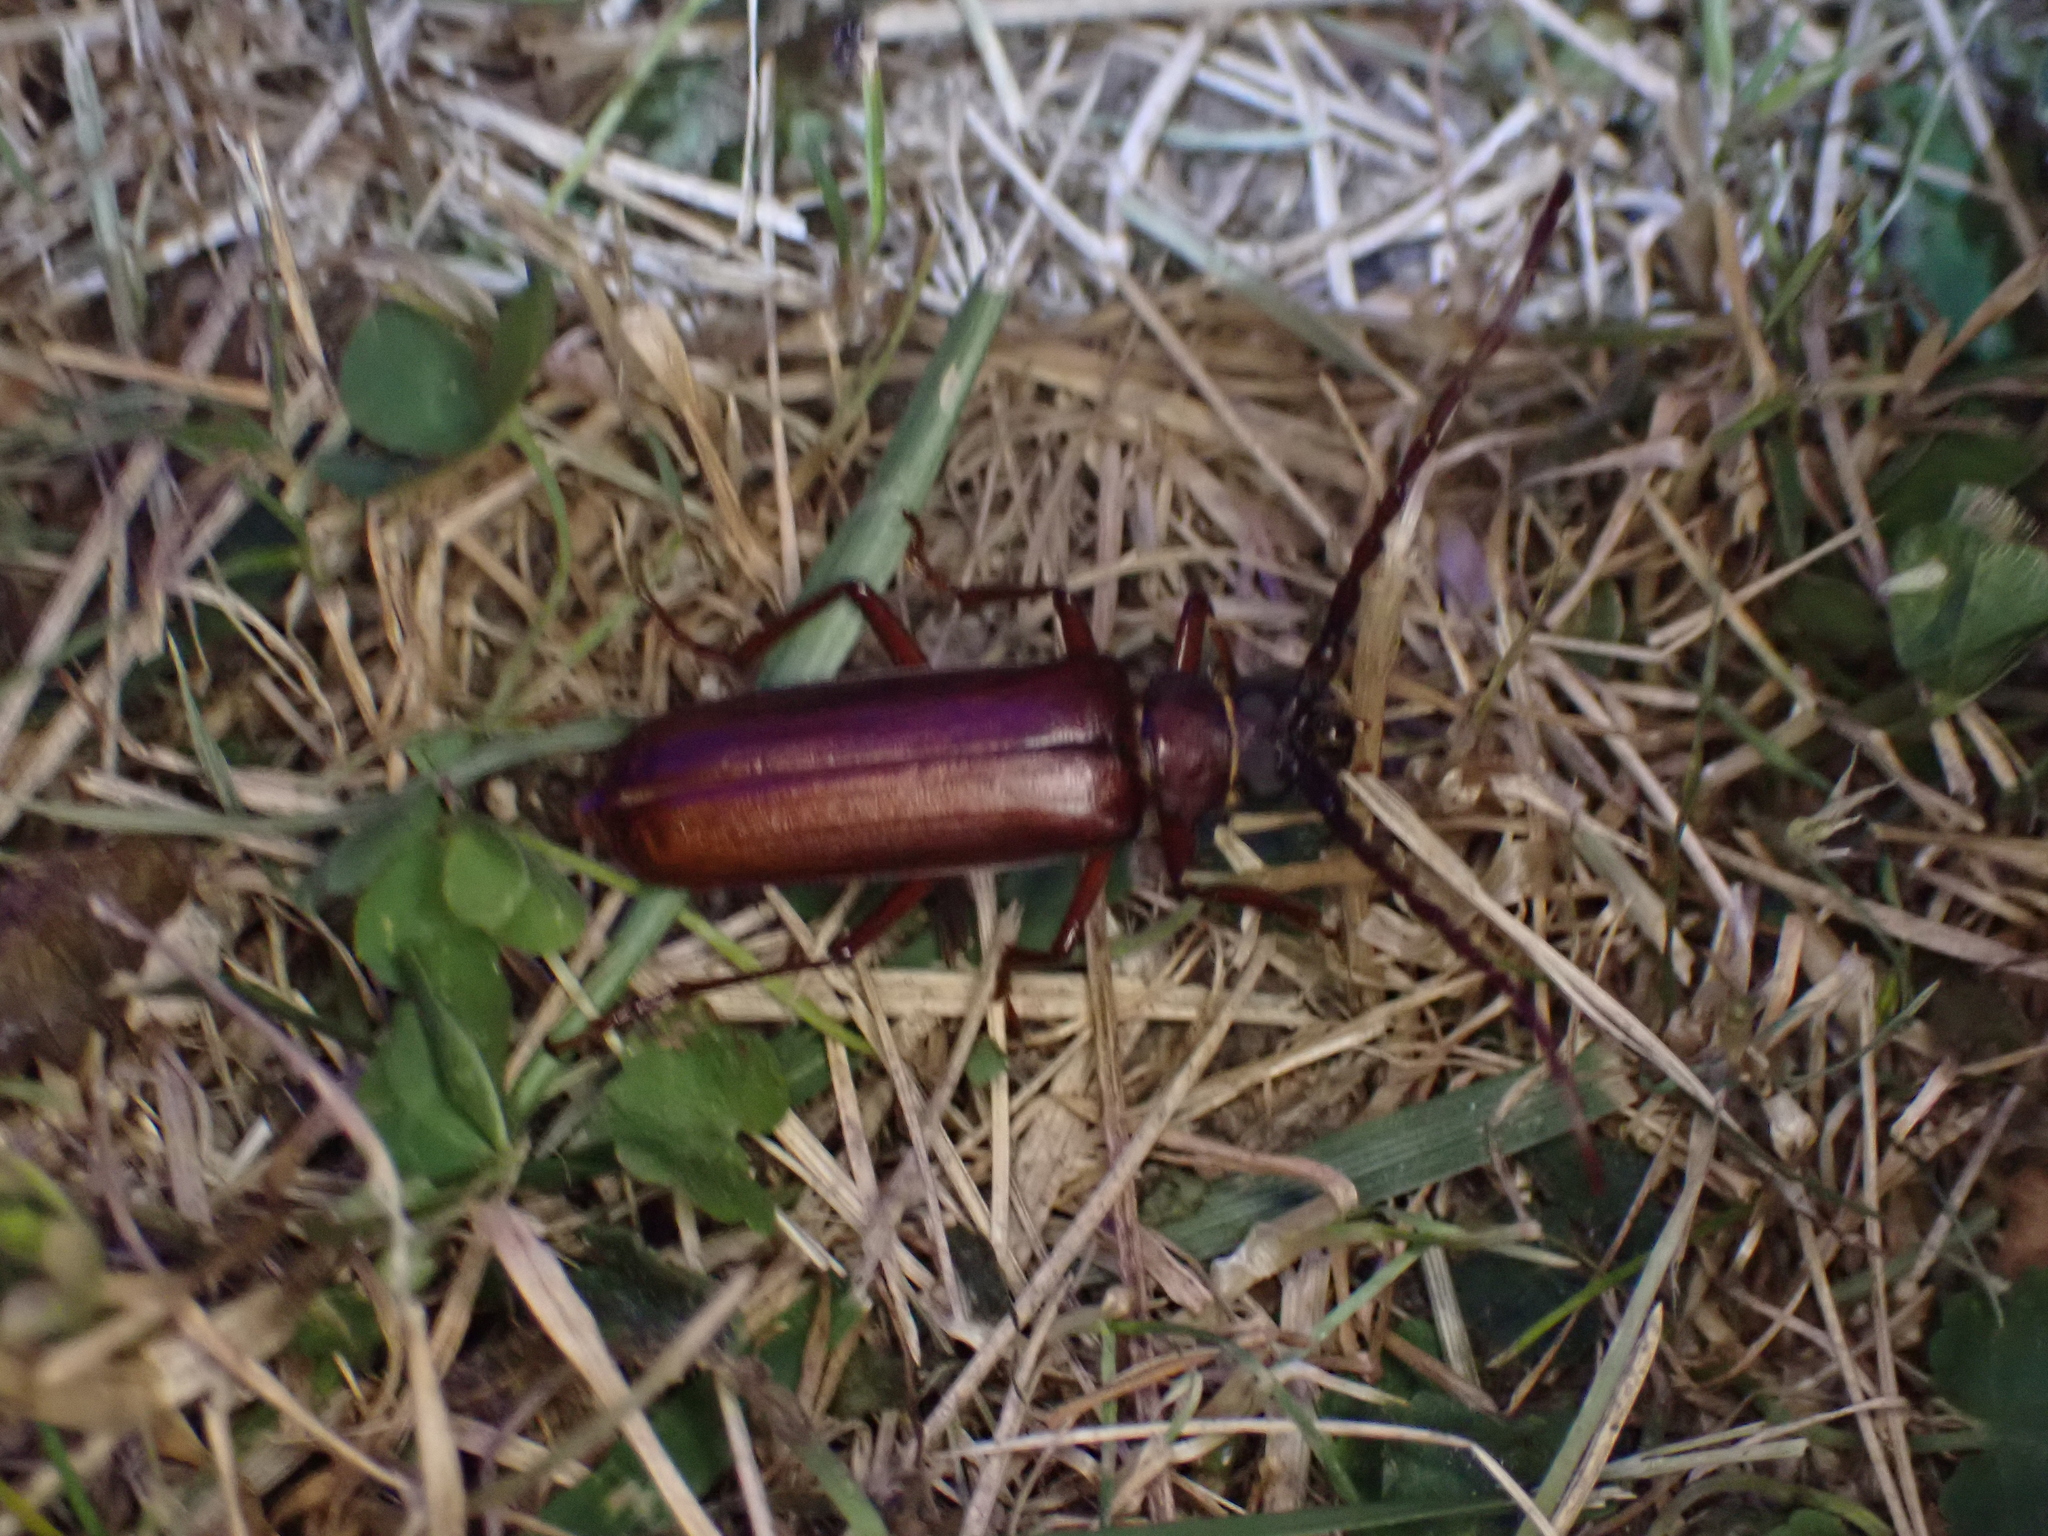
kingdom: Animalia
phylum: Arthropoda
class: Insecta
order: Coleoptera
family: Cerambycidae
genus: Orthosoma
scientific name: Orthosoma brunneum
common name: Brown prionid beetle
